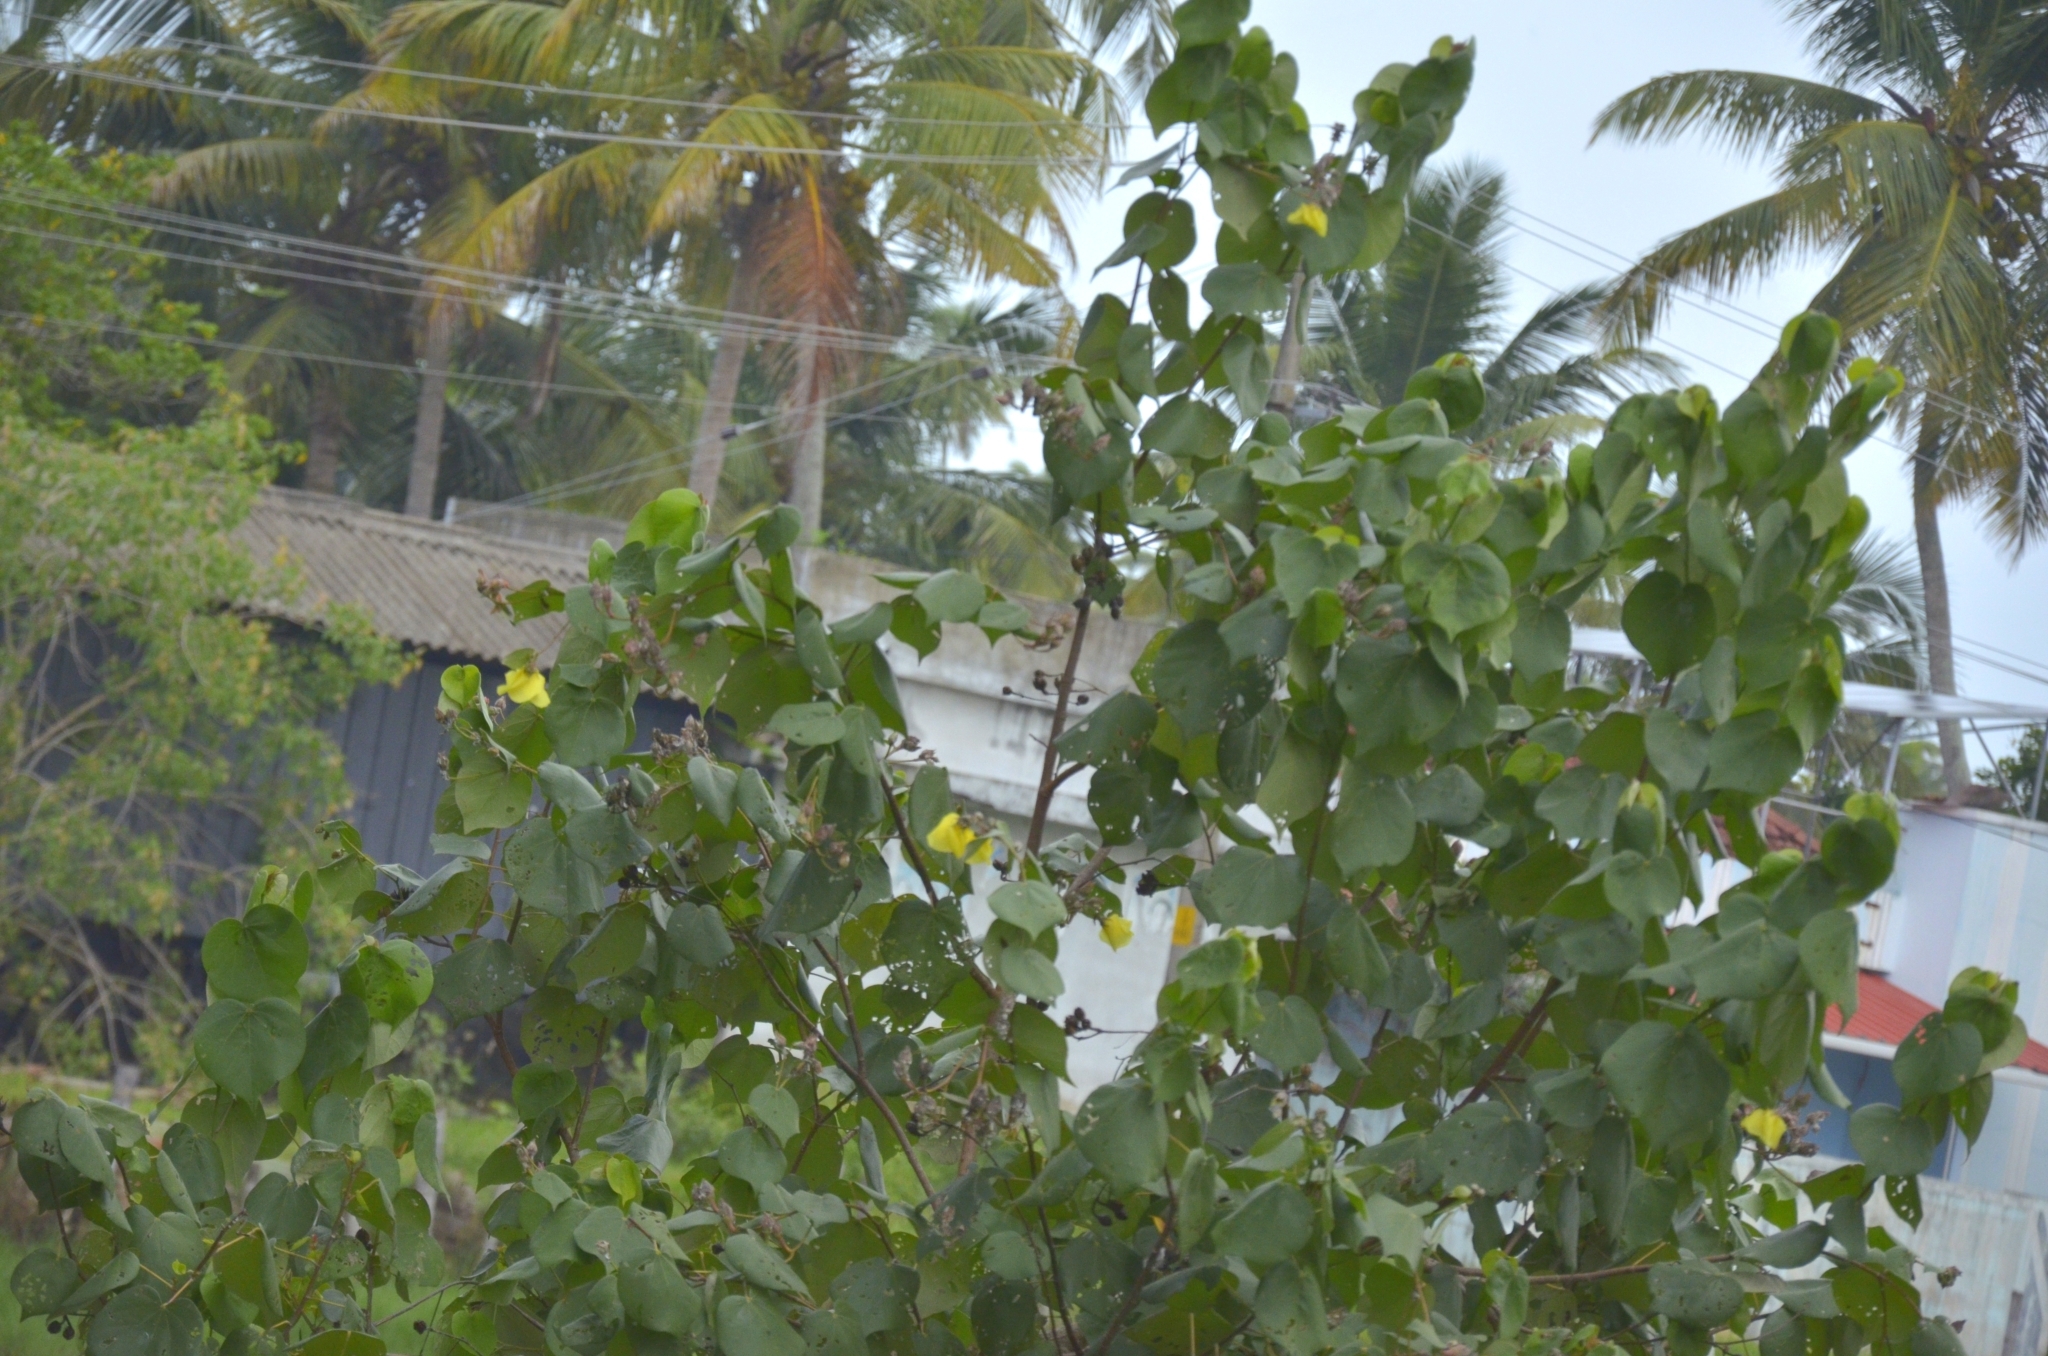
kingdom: Plantae
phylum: Tracheophyta
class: Magnoliopsida
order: Malvales
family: Malvaceae
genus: Talipariti
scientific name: Talipariti tiliaceum
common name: Sea hibiscus
